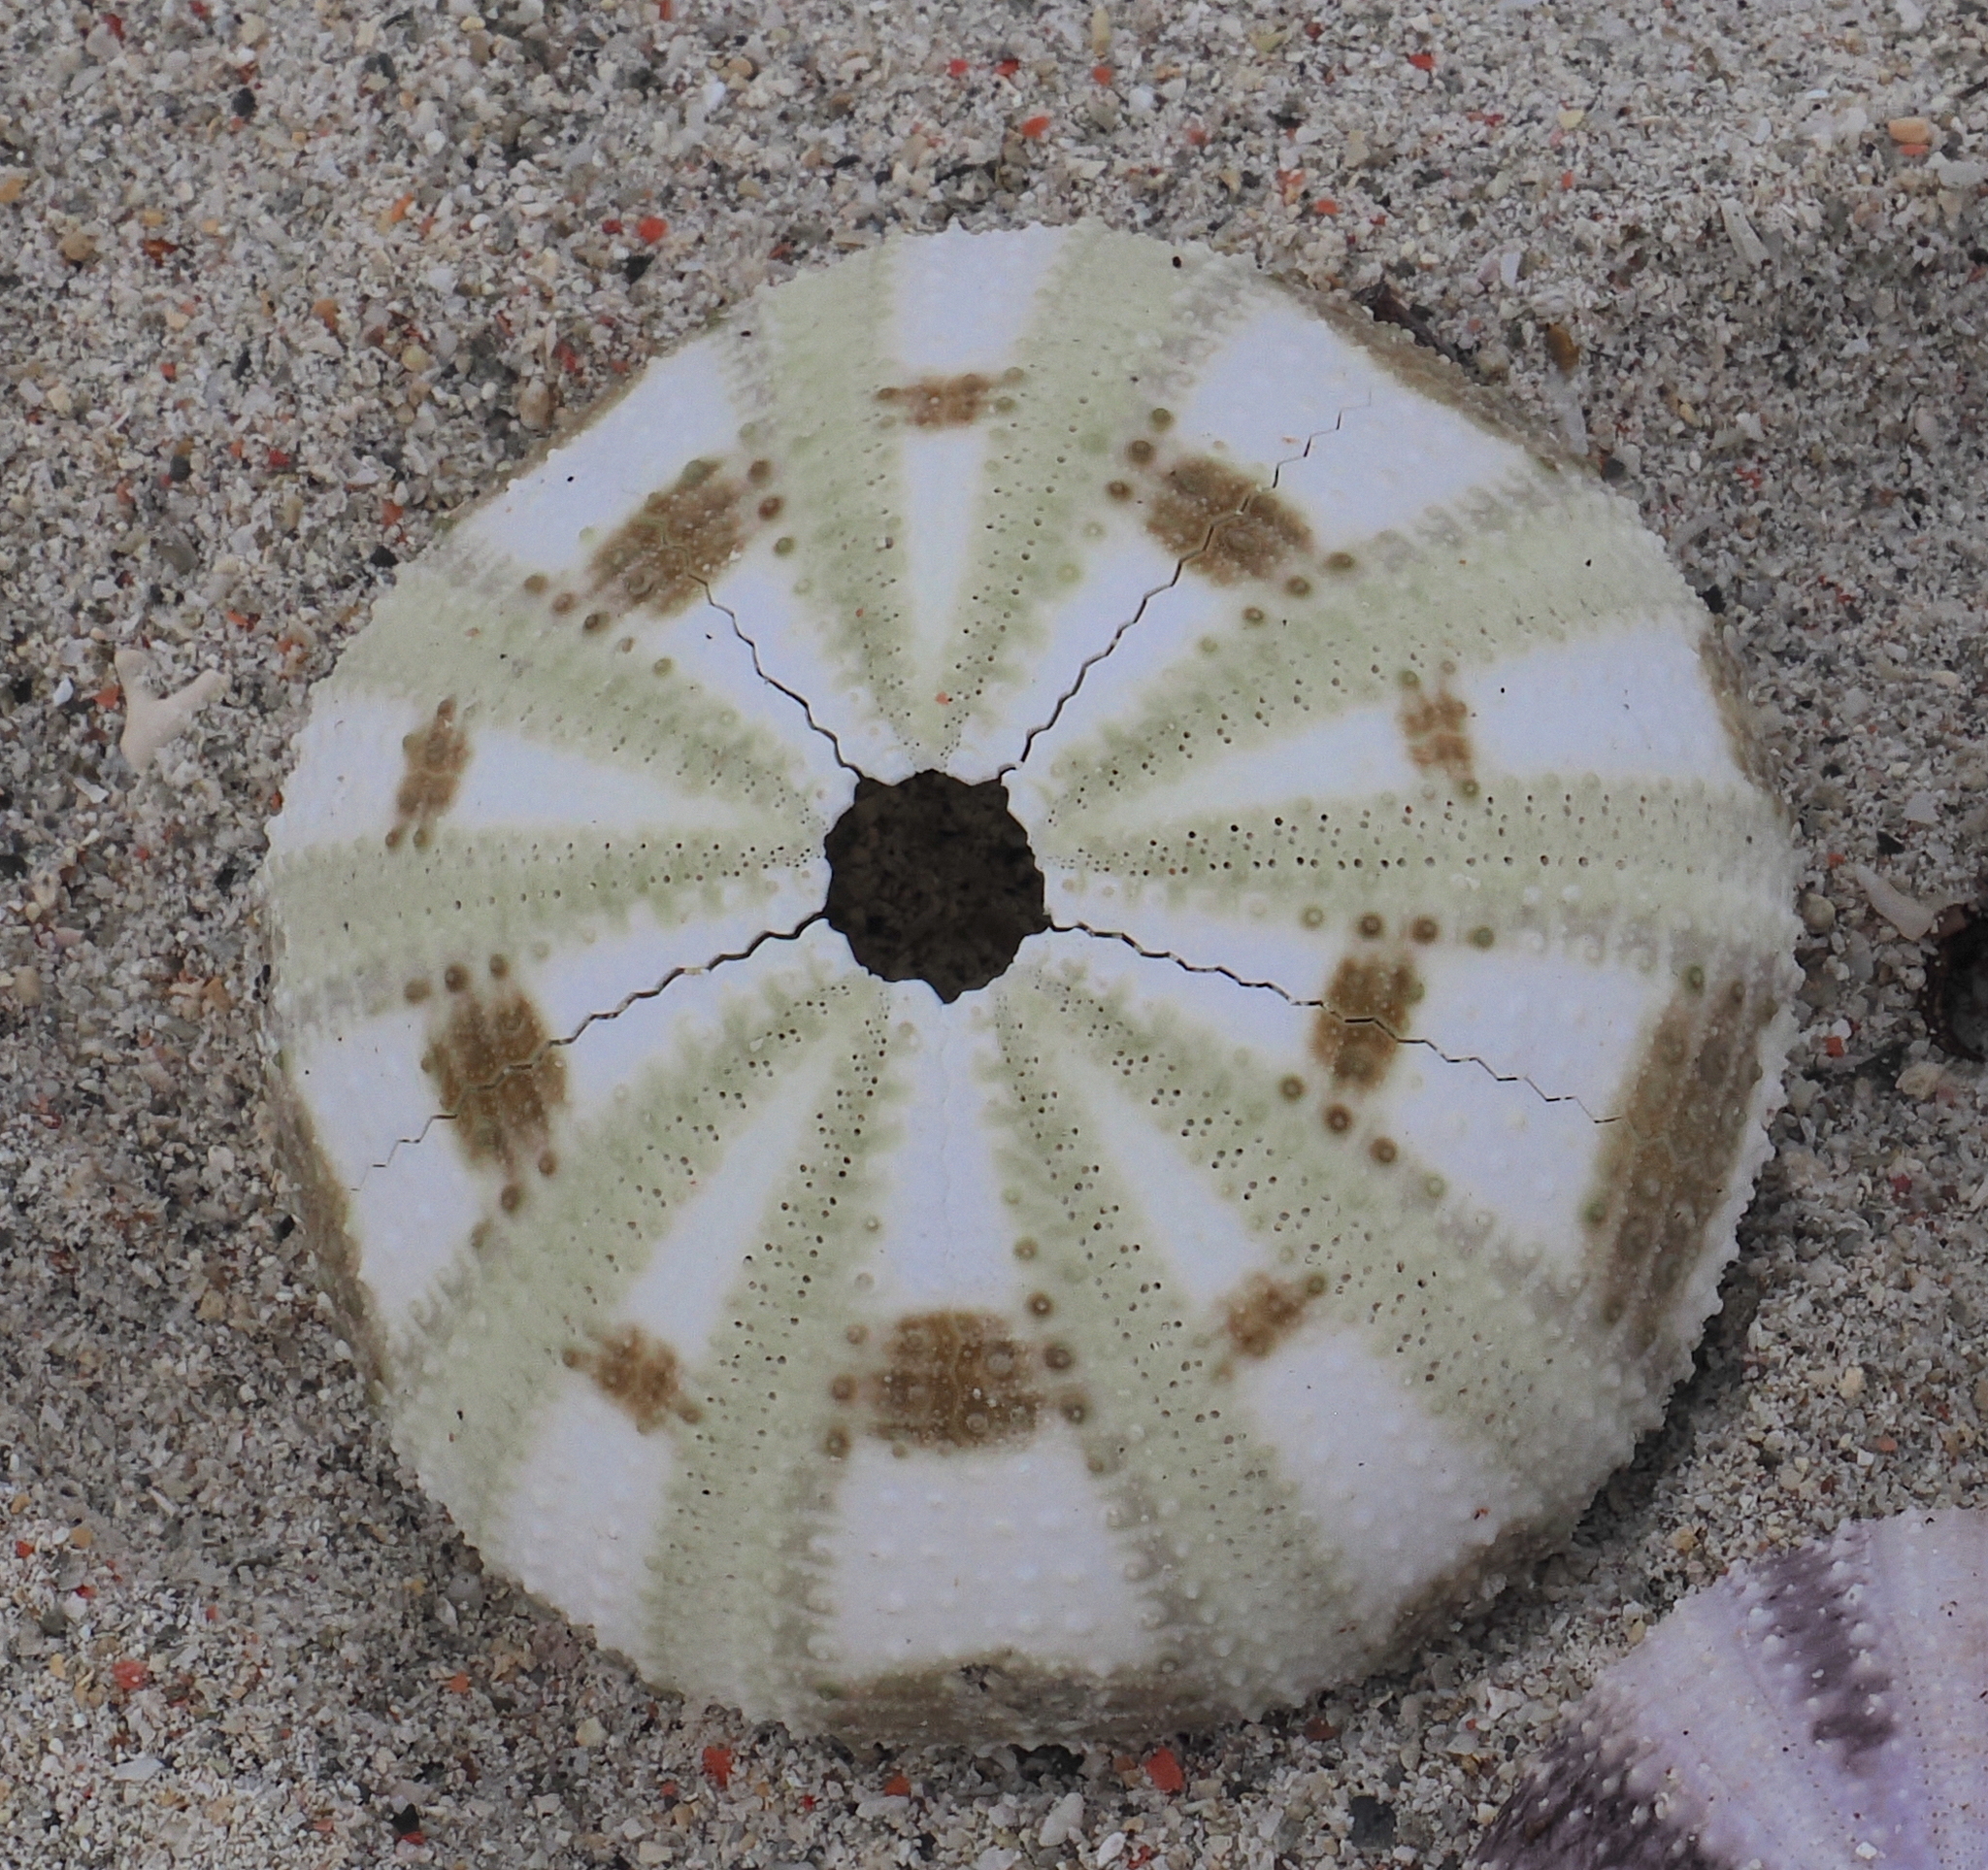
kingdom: Animalia
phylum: Echinodermata
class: Echinoidea
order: Camarodonta
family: Toxopneustidae
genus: Pseudoboletia
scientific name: Pseudoboletia maculata
